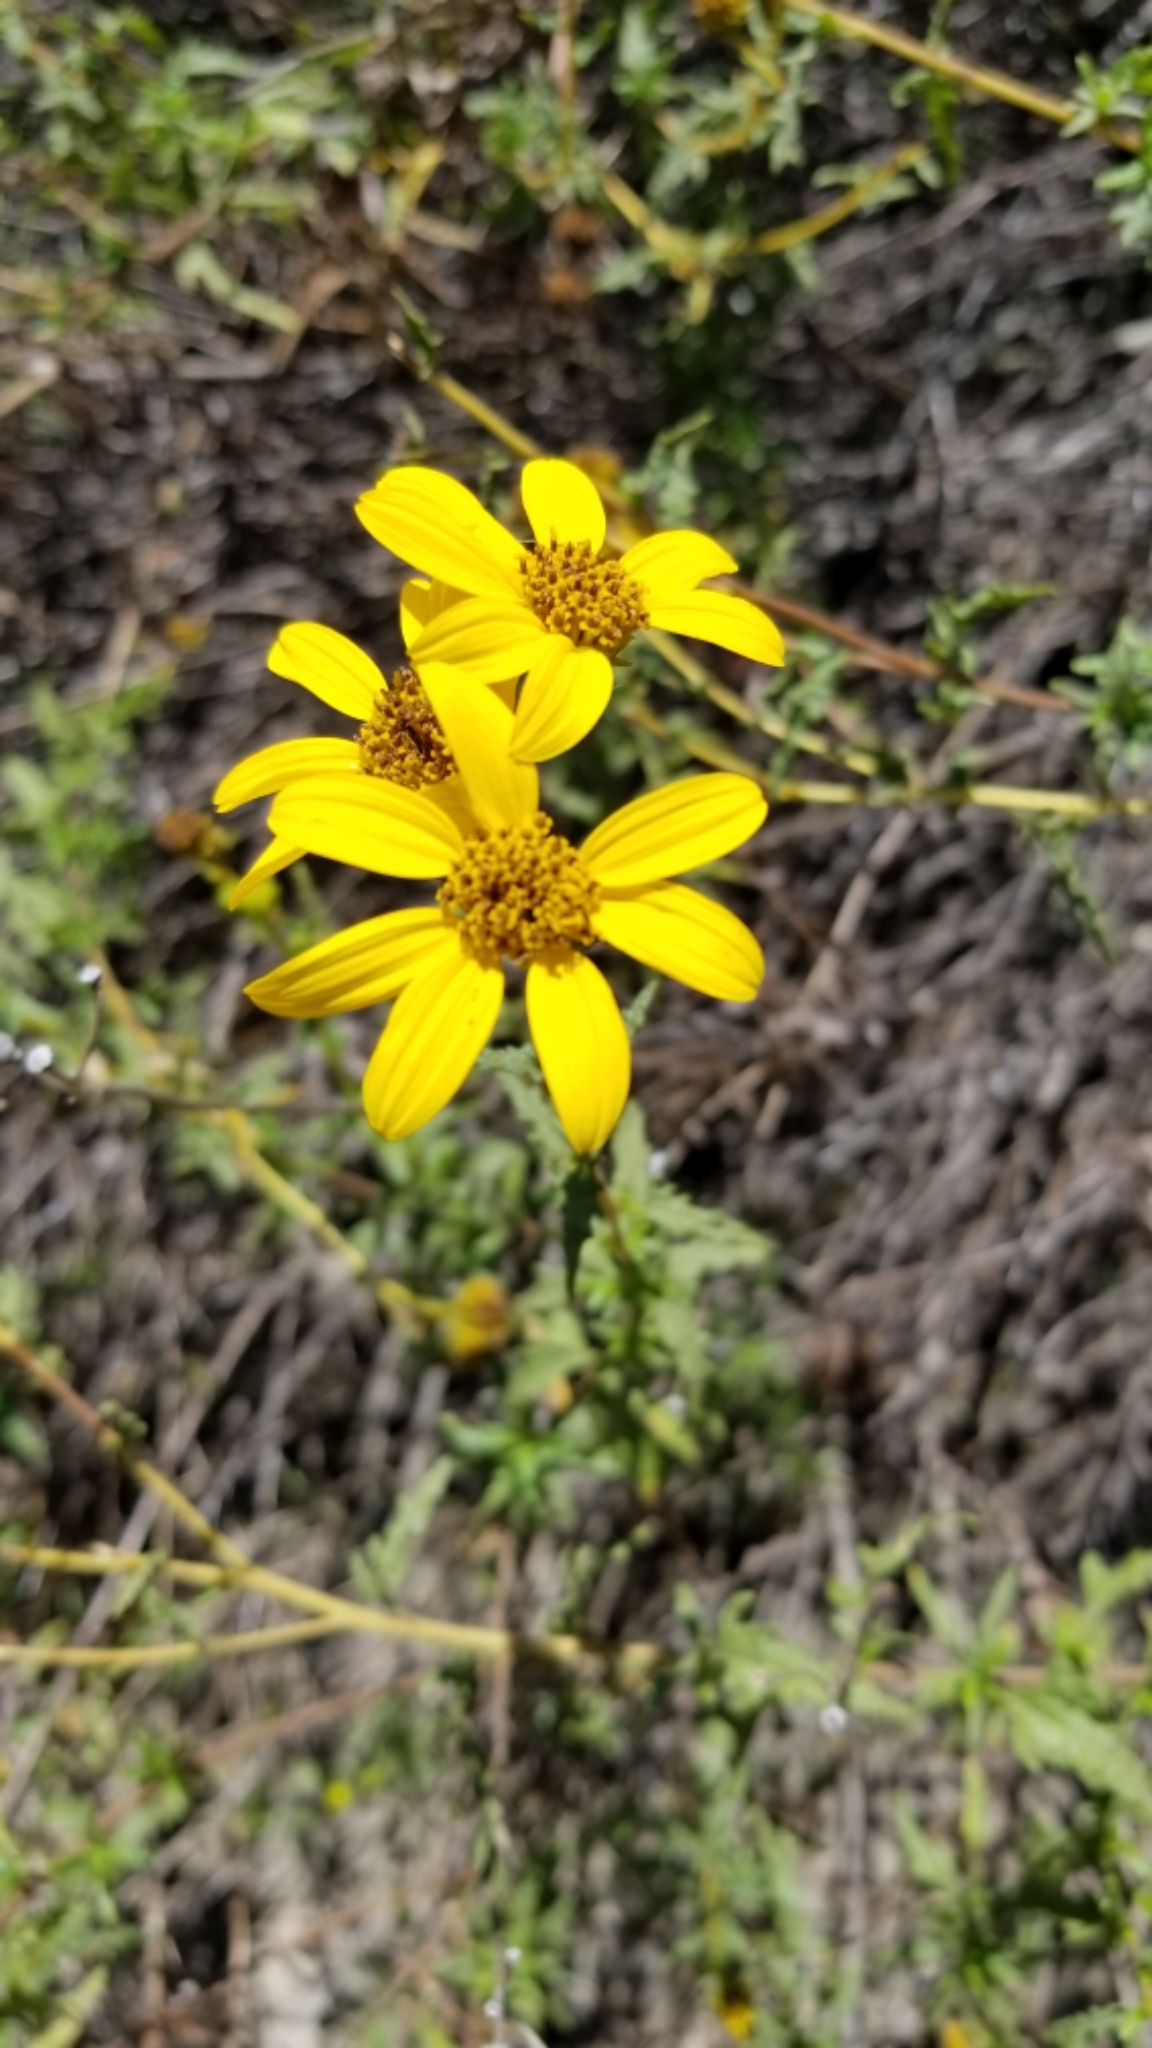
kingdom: Plantae
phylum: Tracheophyta
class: Magnoliopsida
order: Asterales
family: Asteraceae
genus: Bahiopsis
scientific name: Bahiopsis laciniata
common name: San diego county viguiera
